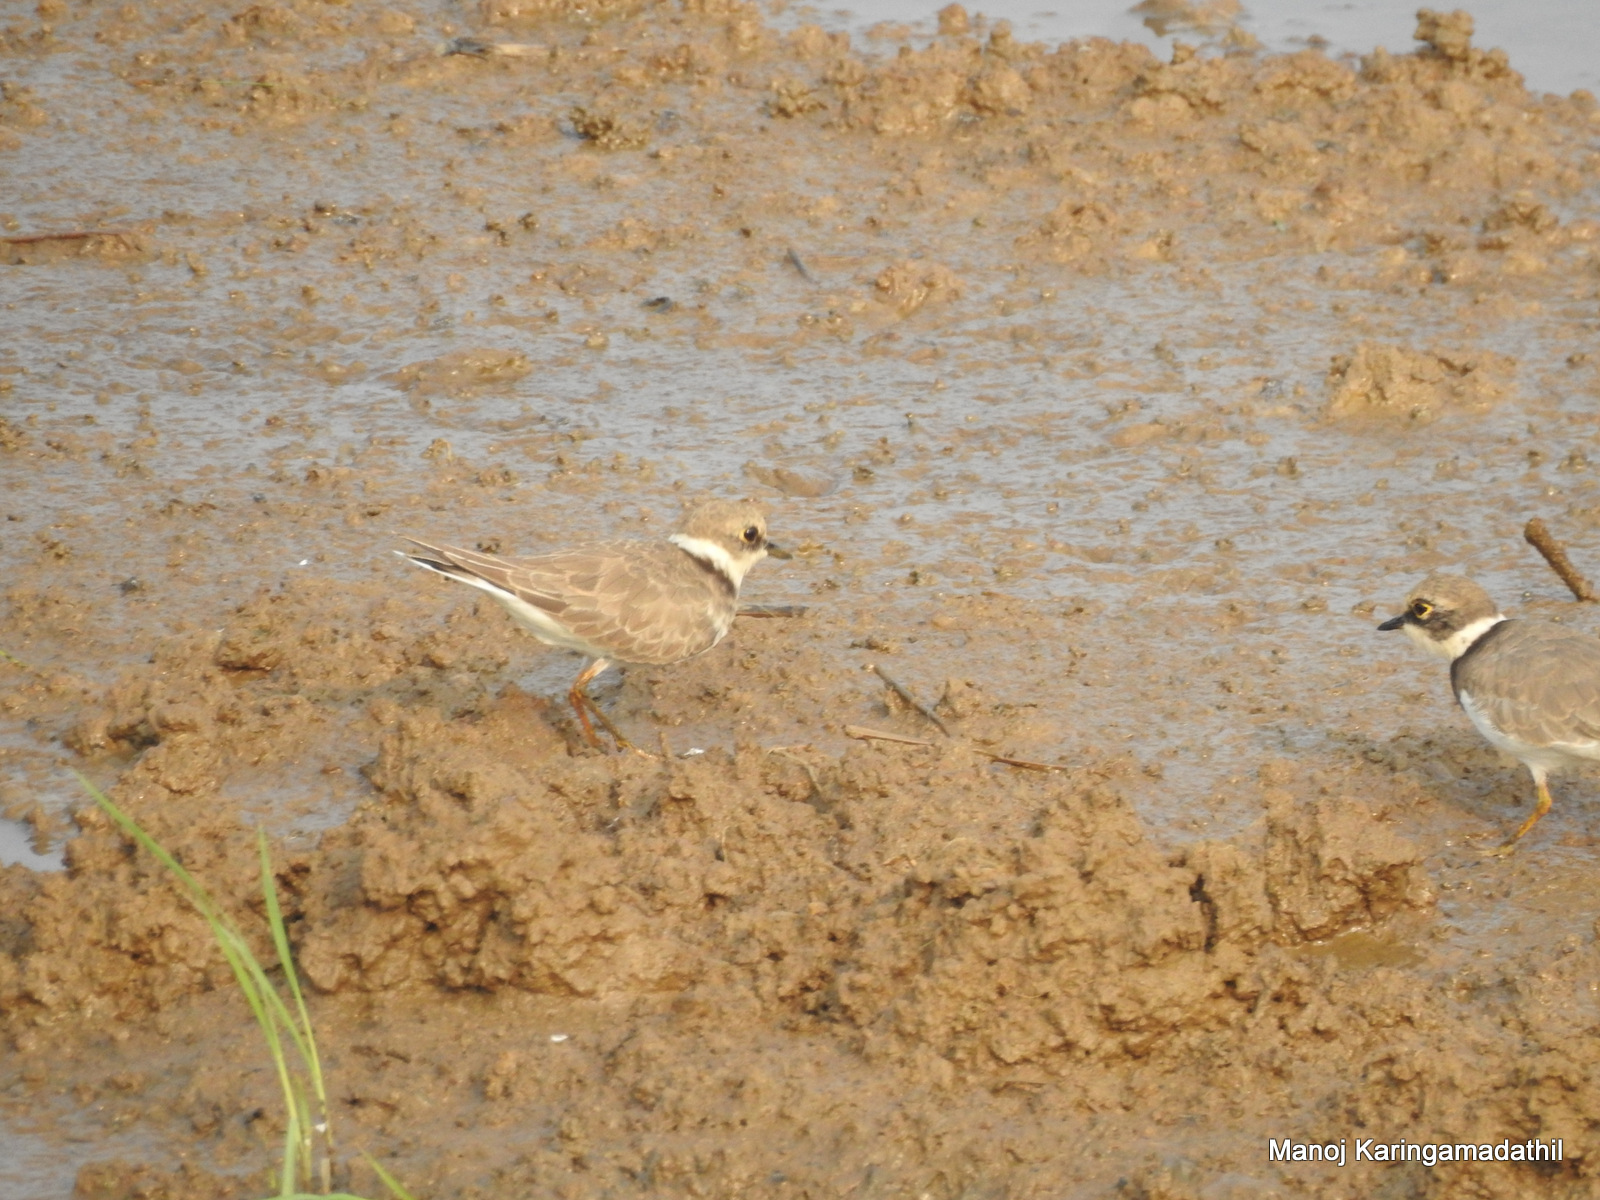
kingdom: Animalia
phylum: Chordata
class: Aves
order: Charadriiformes
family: Charadriidae
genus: Charadrius
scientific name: Charadrius dubius
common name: Little ringed plover
